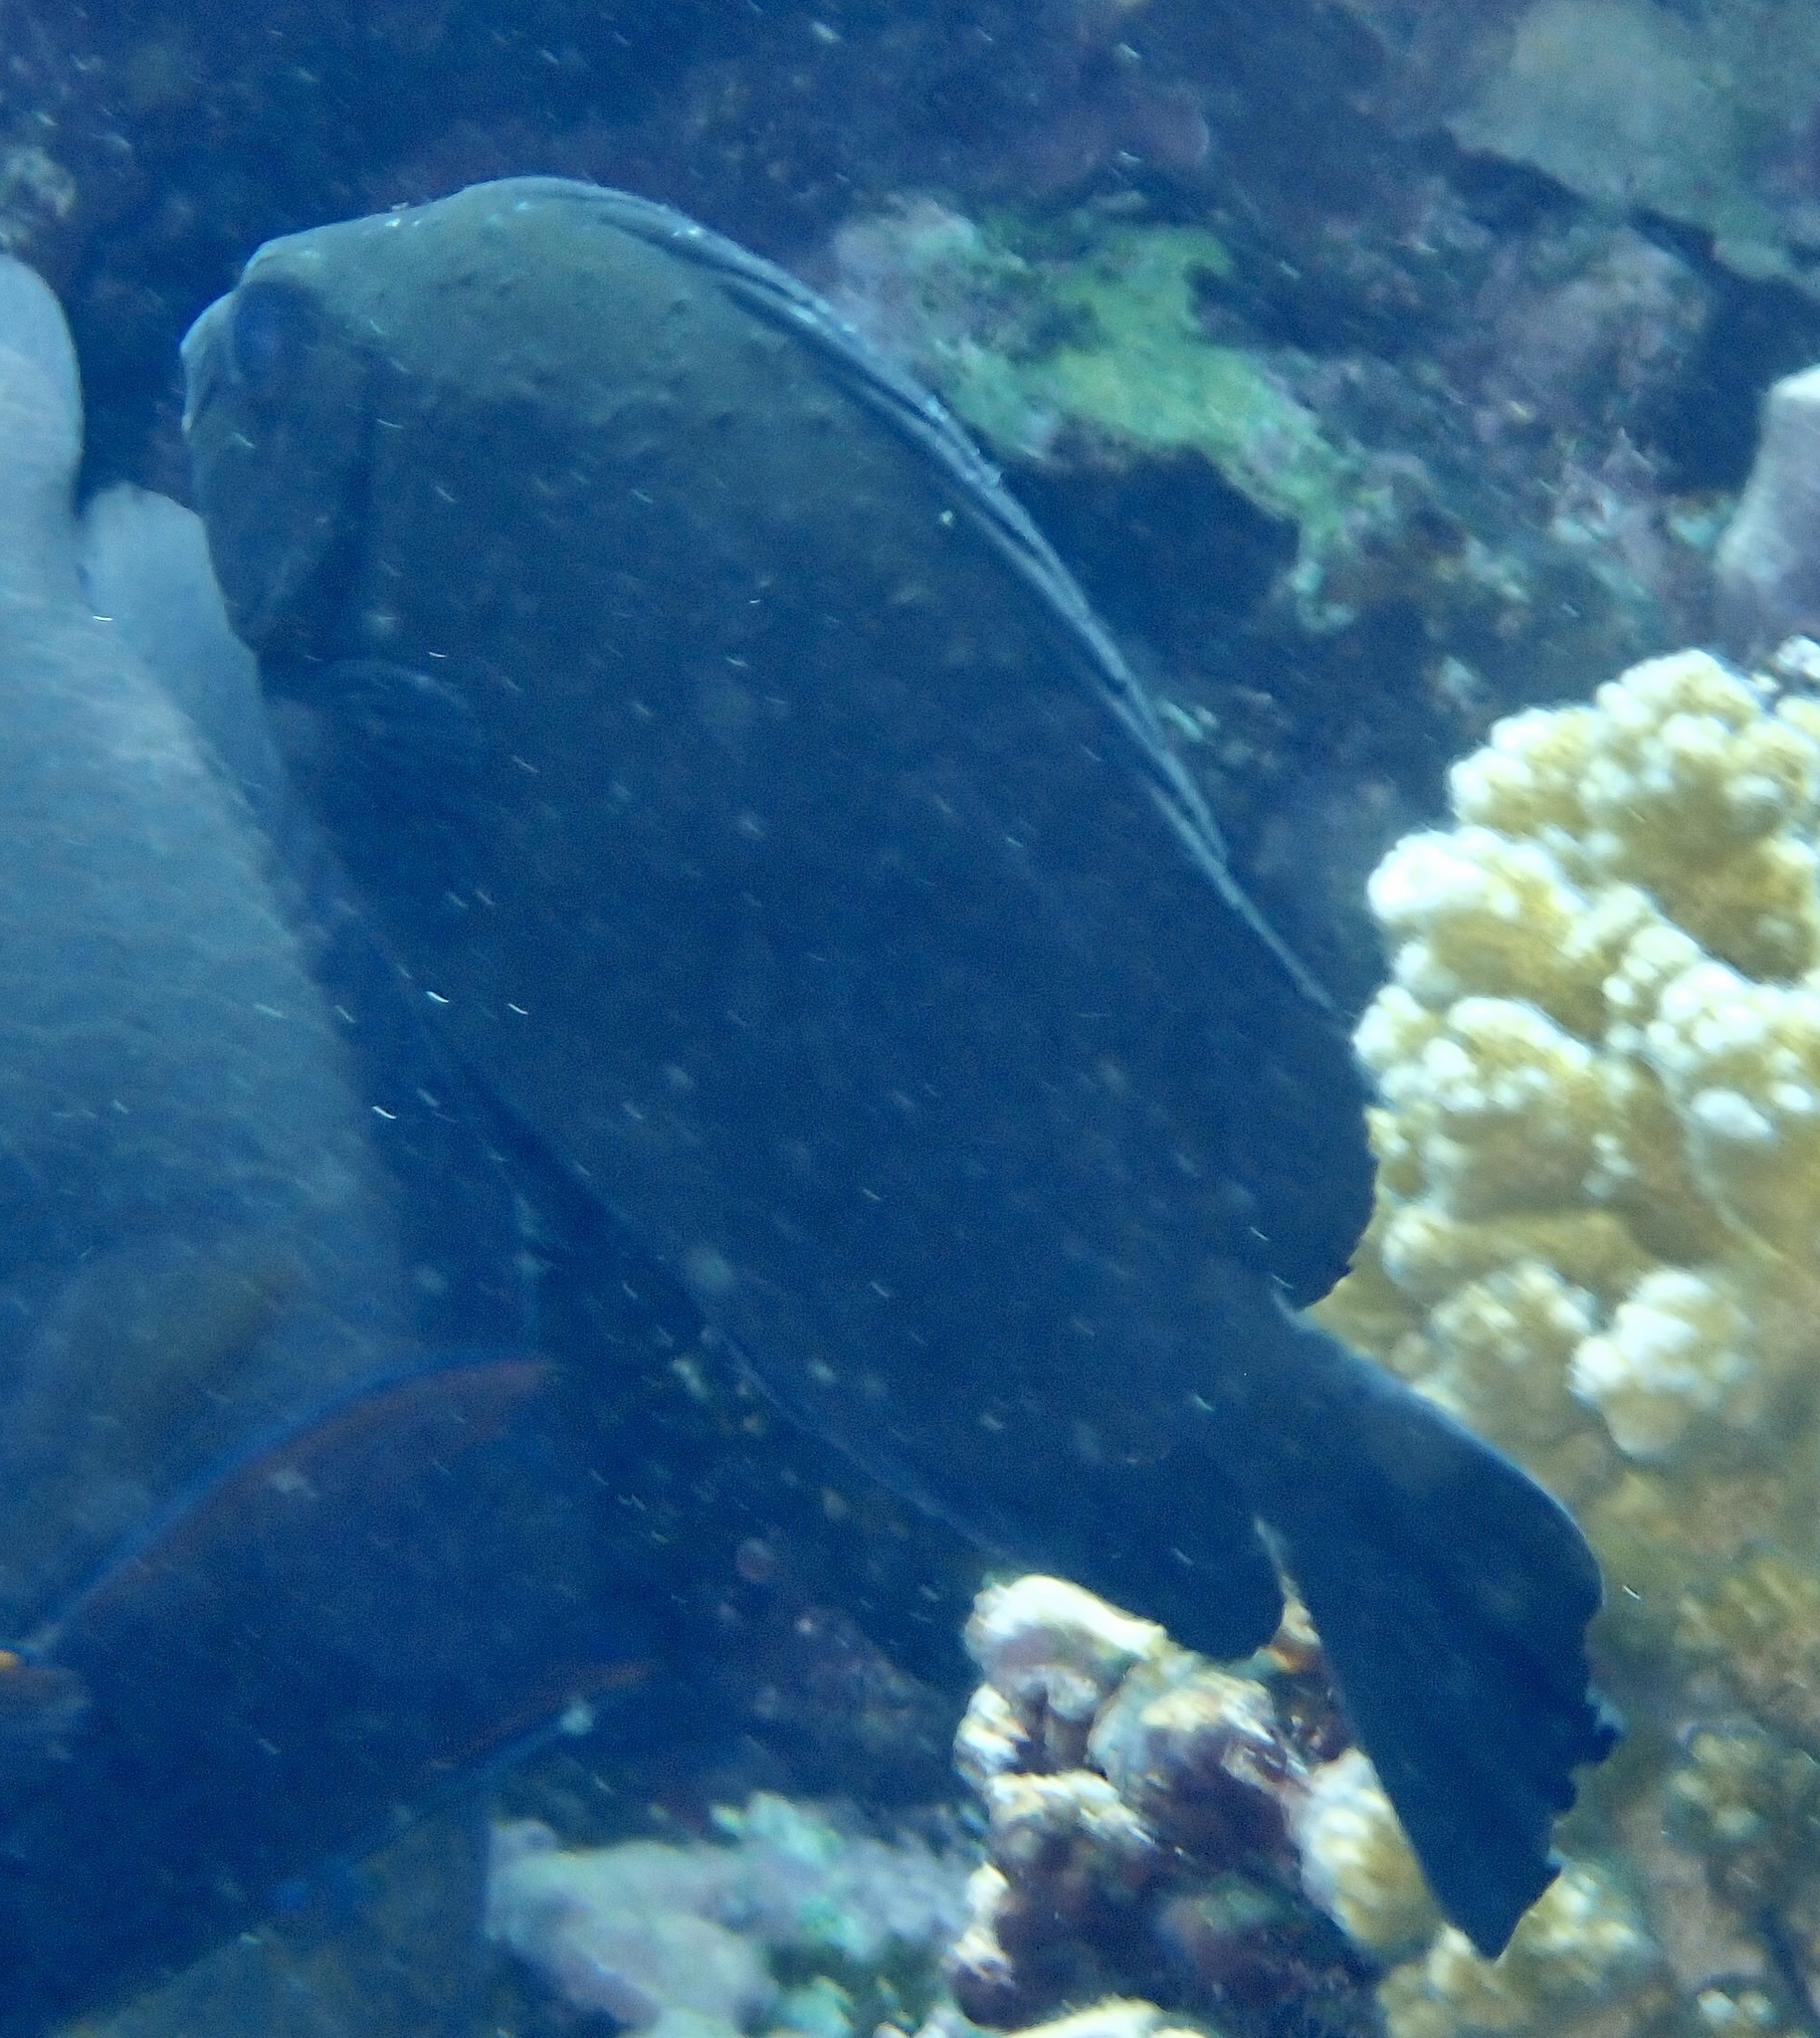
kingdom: Animalia
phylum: Chordata
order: Perciformes
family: Siganidae
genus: Siganus
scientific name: Siganus luridus
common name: Dusky spinefoot
